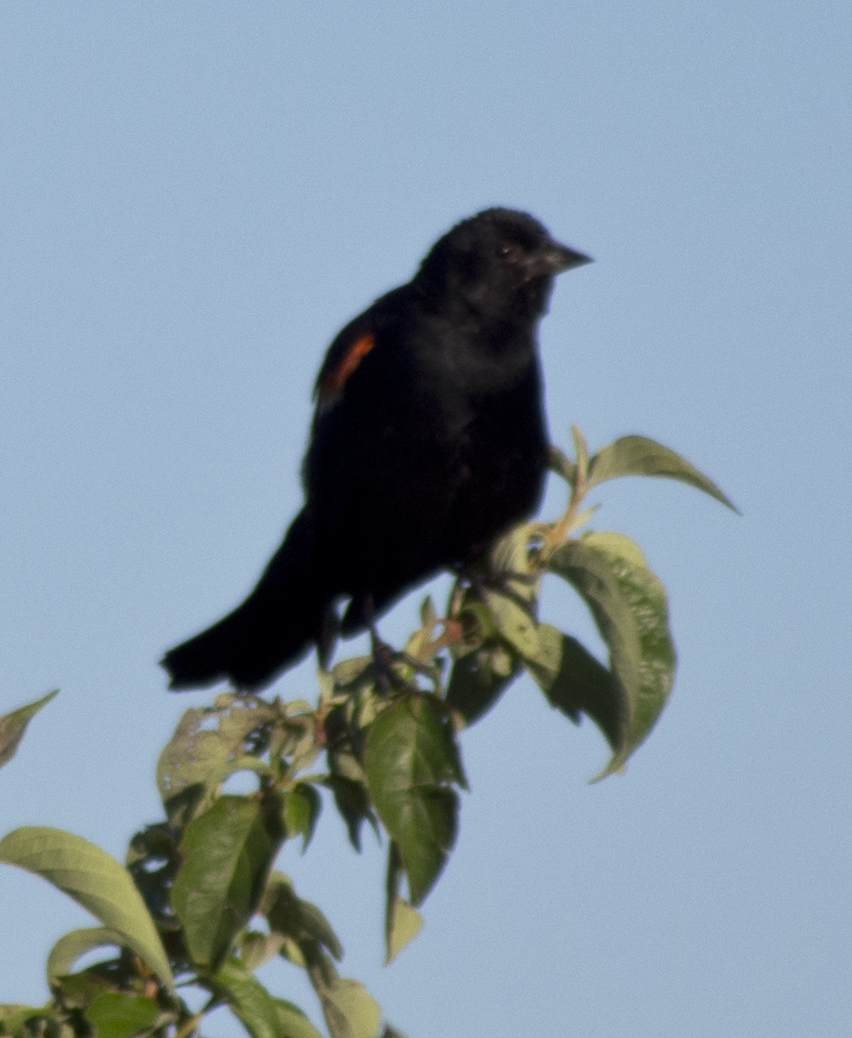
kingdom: Animalia
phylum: Chordata
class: Aves
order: Passeriformes
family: Icteridae
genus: Agelaius
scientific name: Agelaius phoeniceus
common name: Red-winged blackbird
